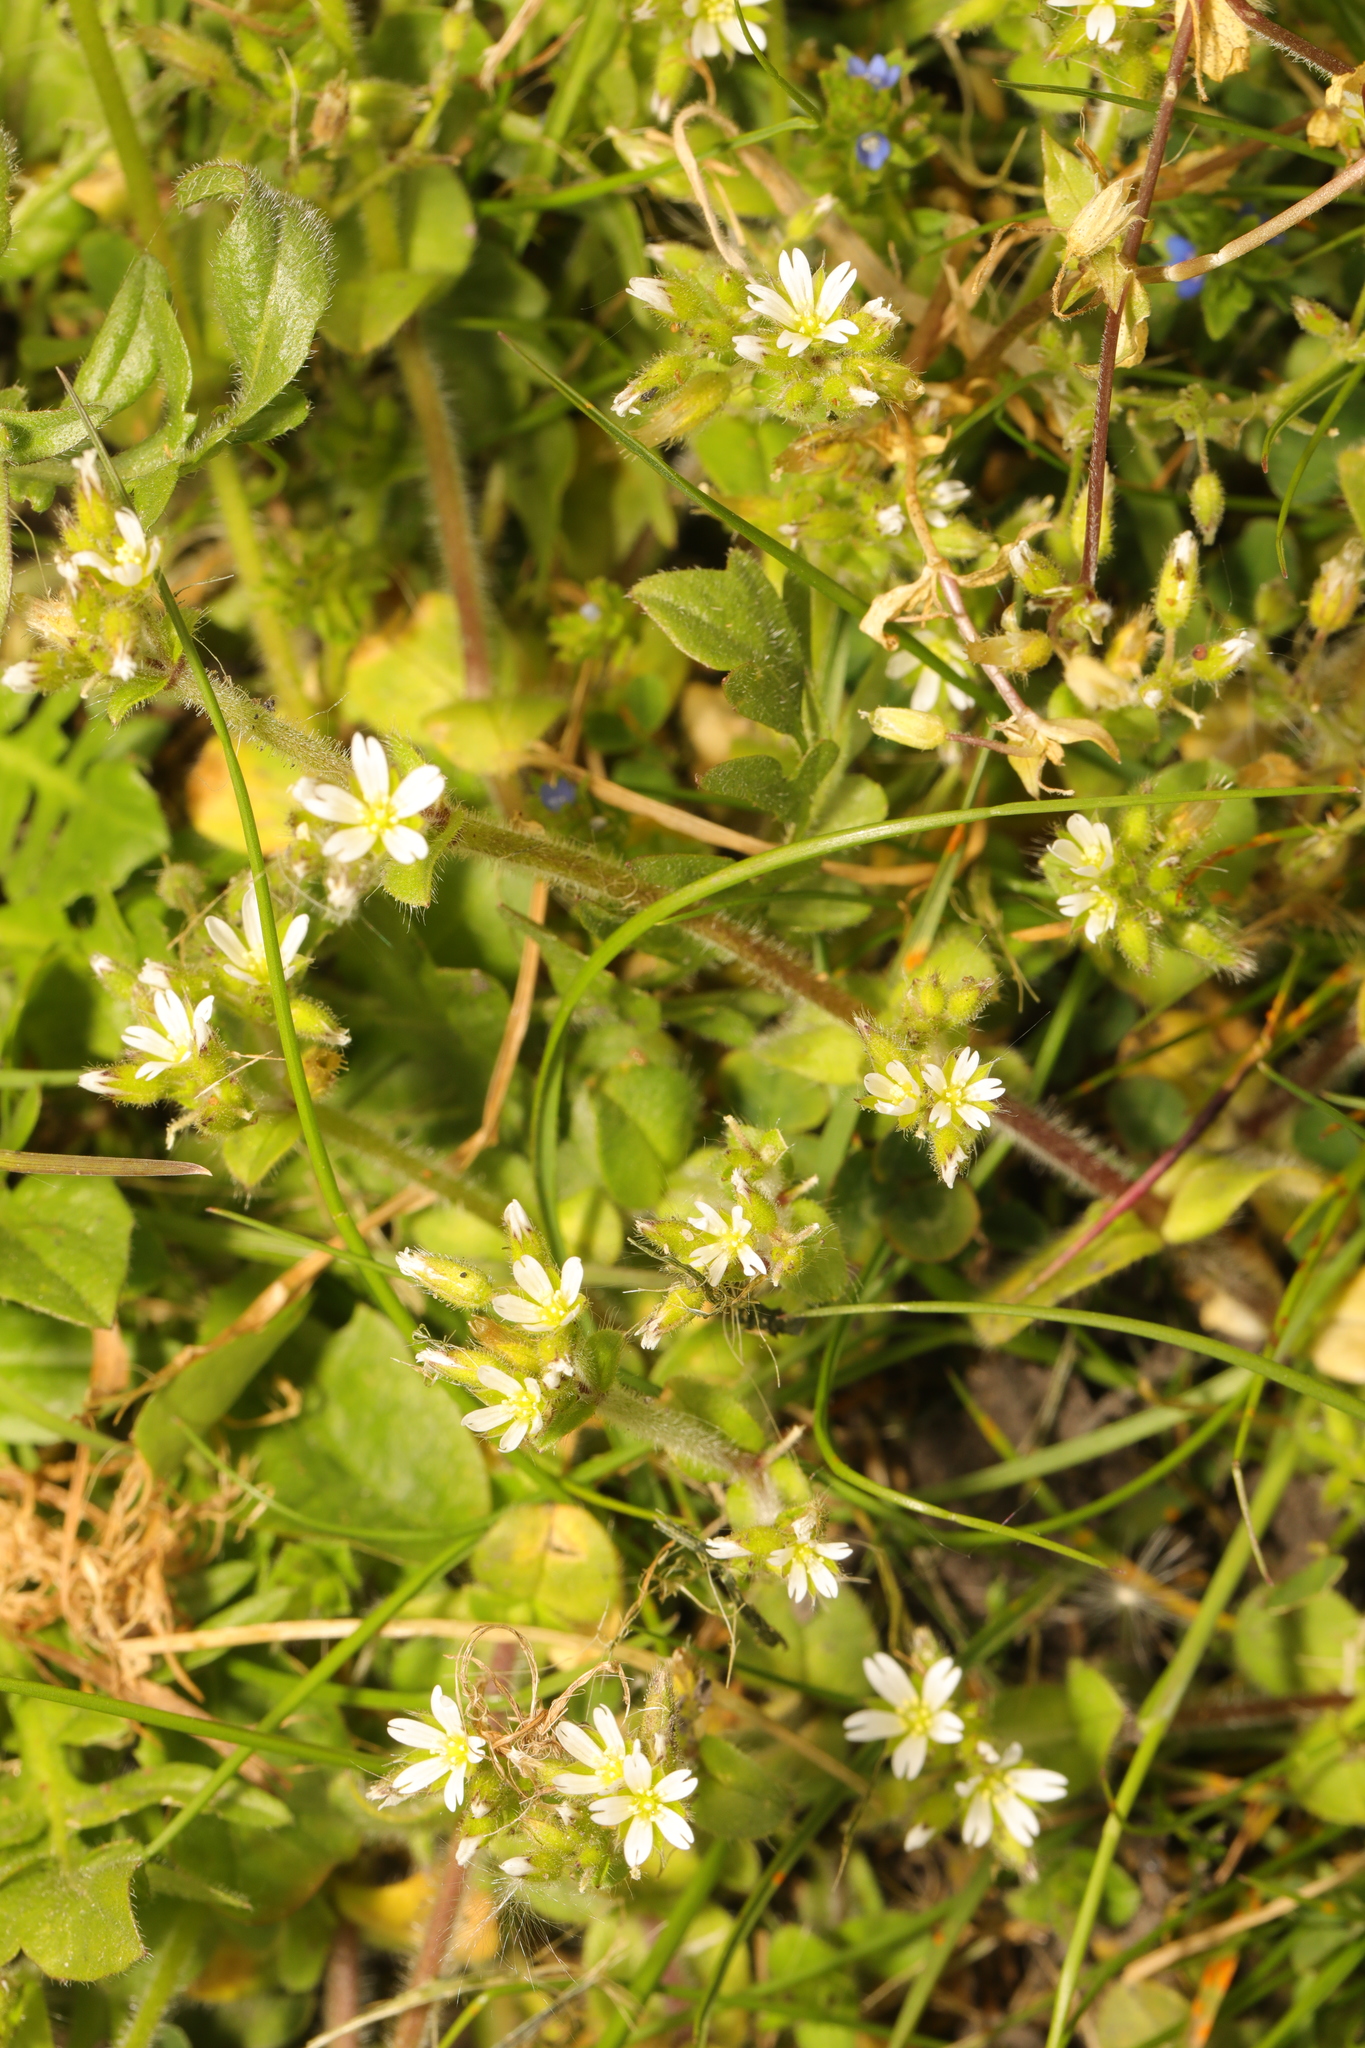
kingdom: Plantae
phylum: Tracheophyta
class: Magnoliopsida
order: Caryophyllales
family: Caryophyllaceae
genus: Cerastium
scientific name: Cerastium glomeratum
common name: Sticky chickweed
